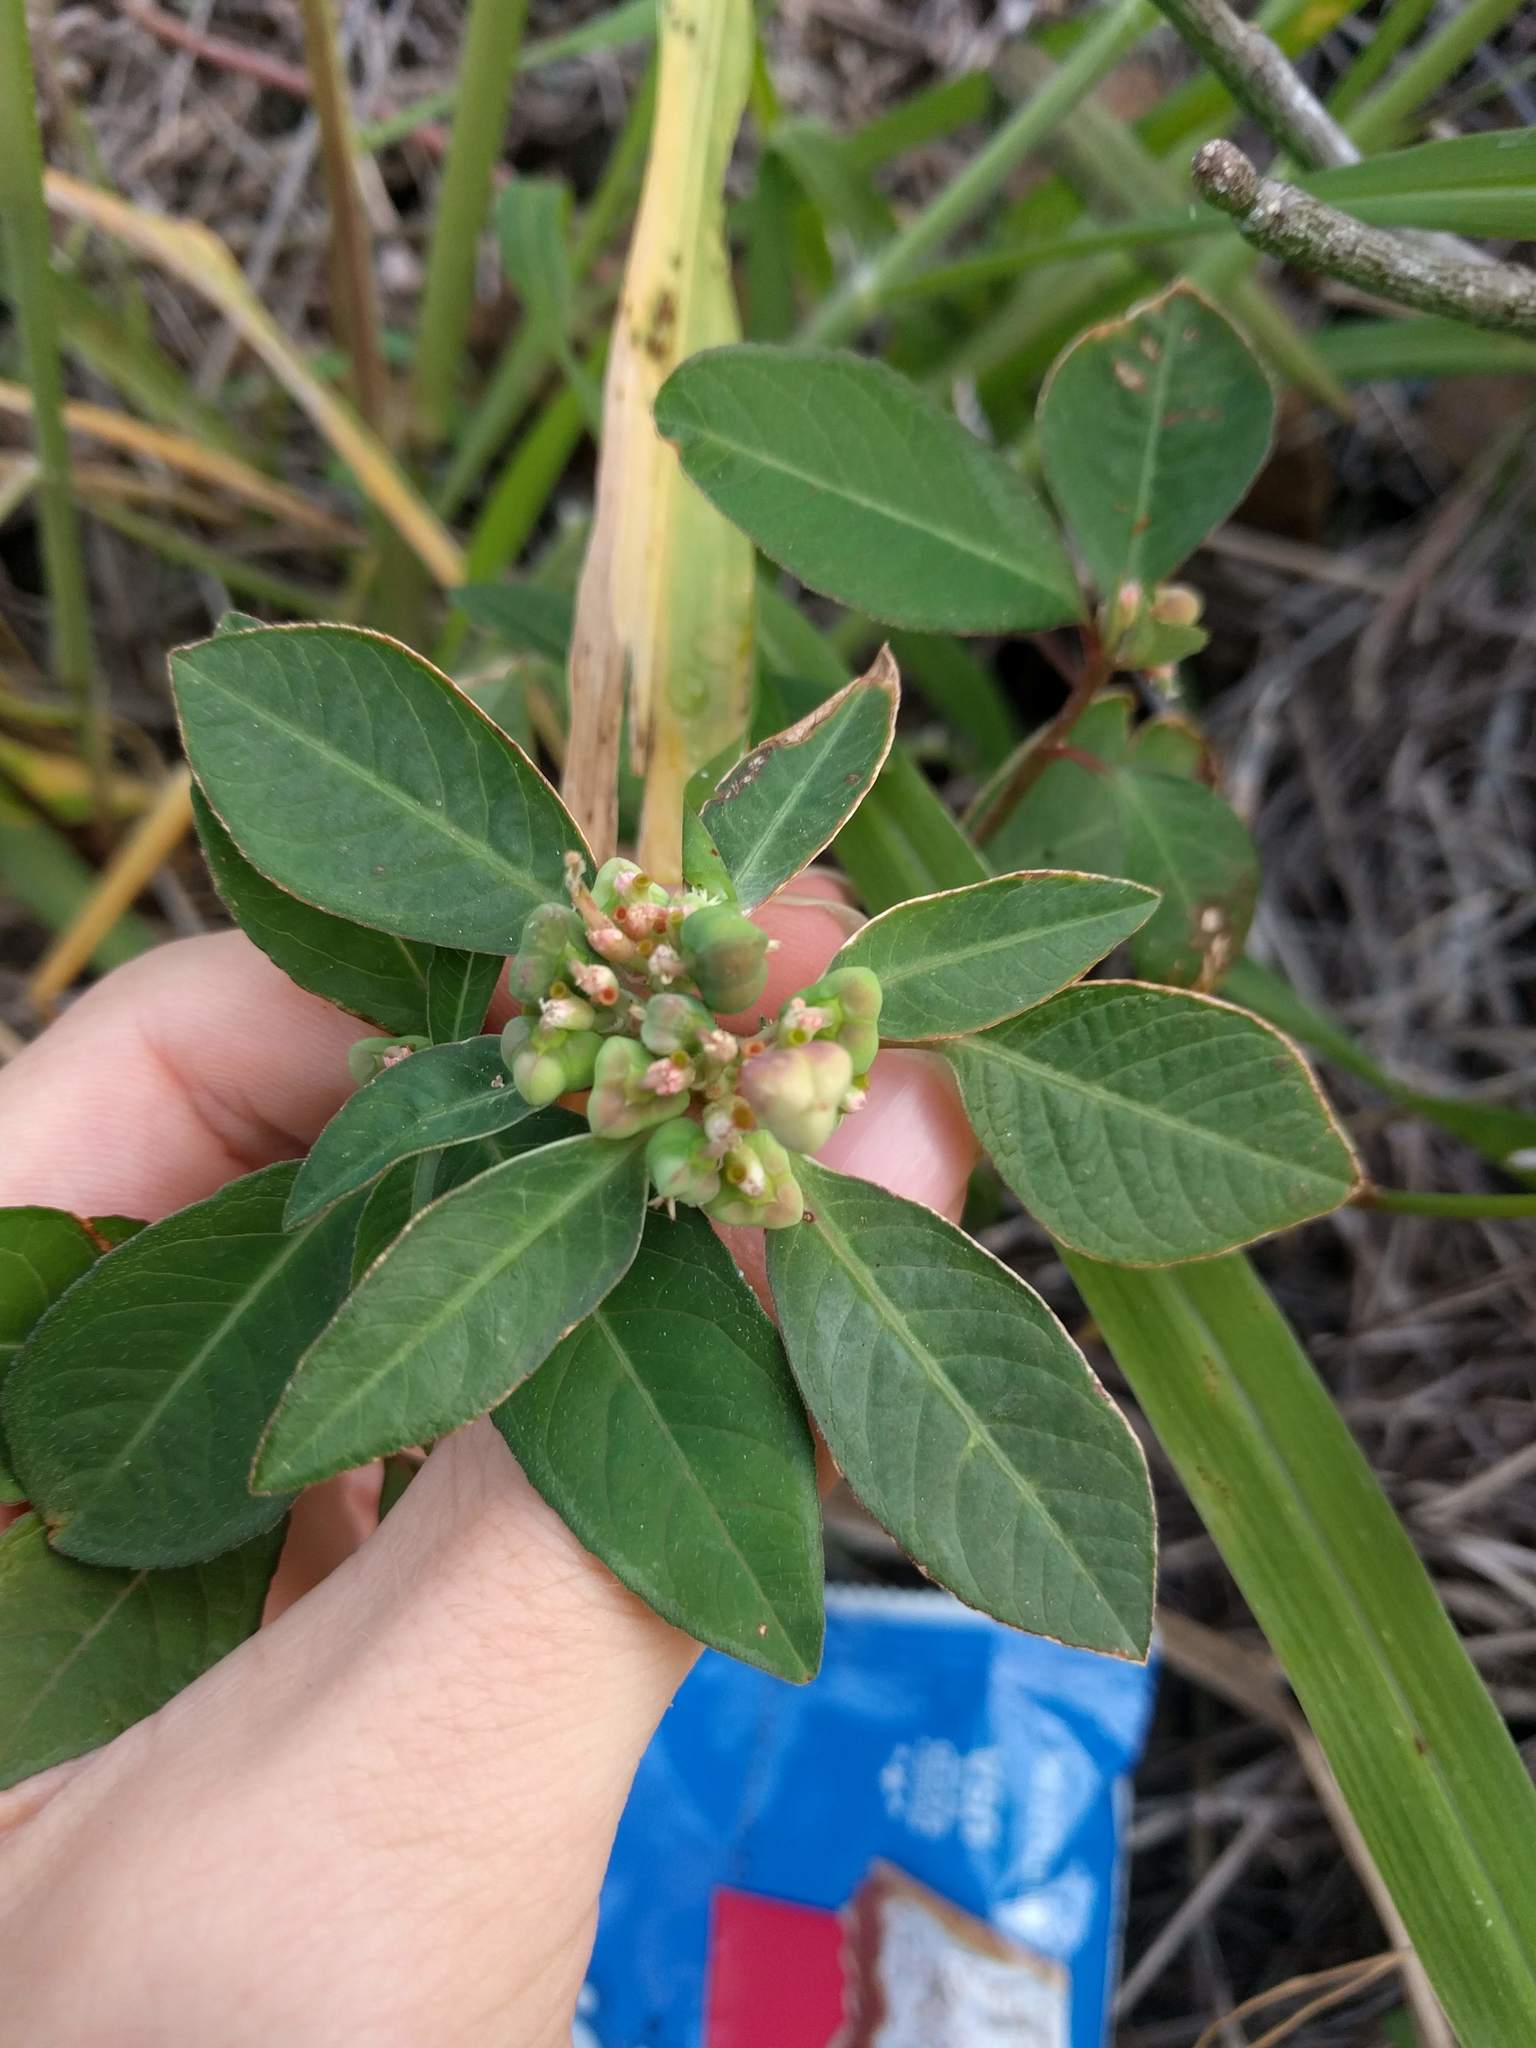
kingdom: Plantae
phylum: Tracheophyta
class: Magnoliopsida
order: Malpighiales
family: Euphorbiaceae
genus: Euphorbia
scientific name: Euphorbia heterophylla
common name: Mexican fireplant
